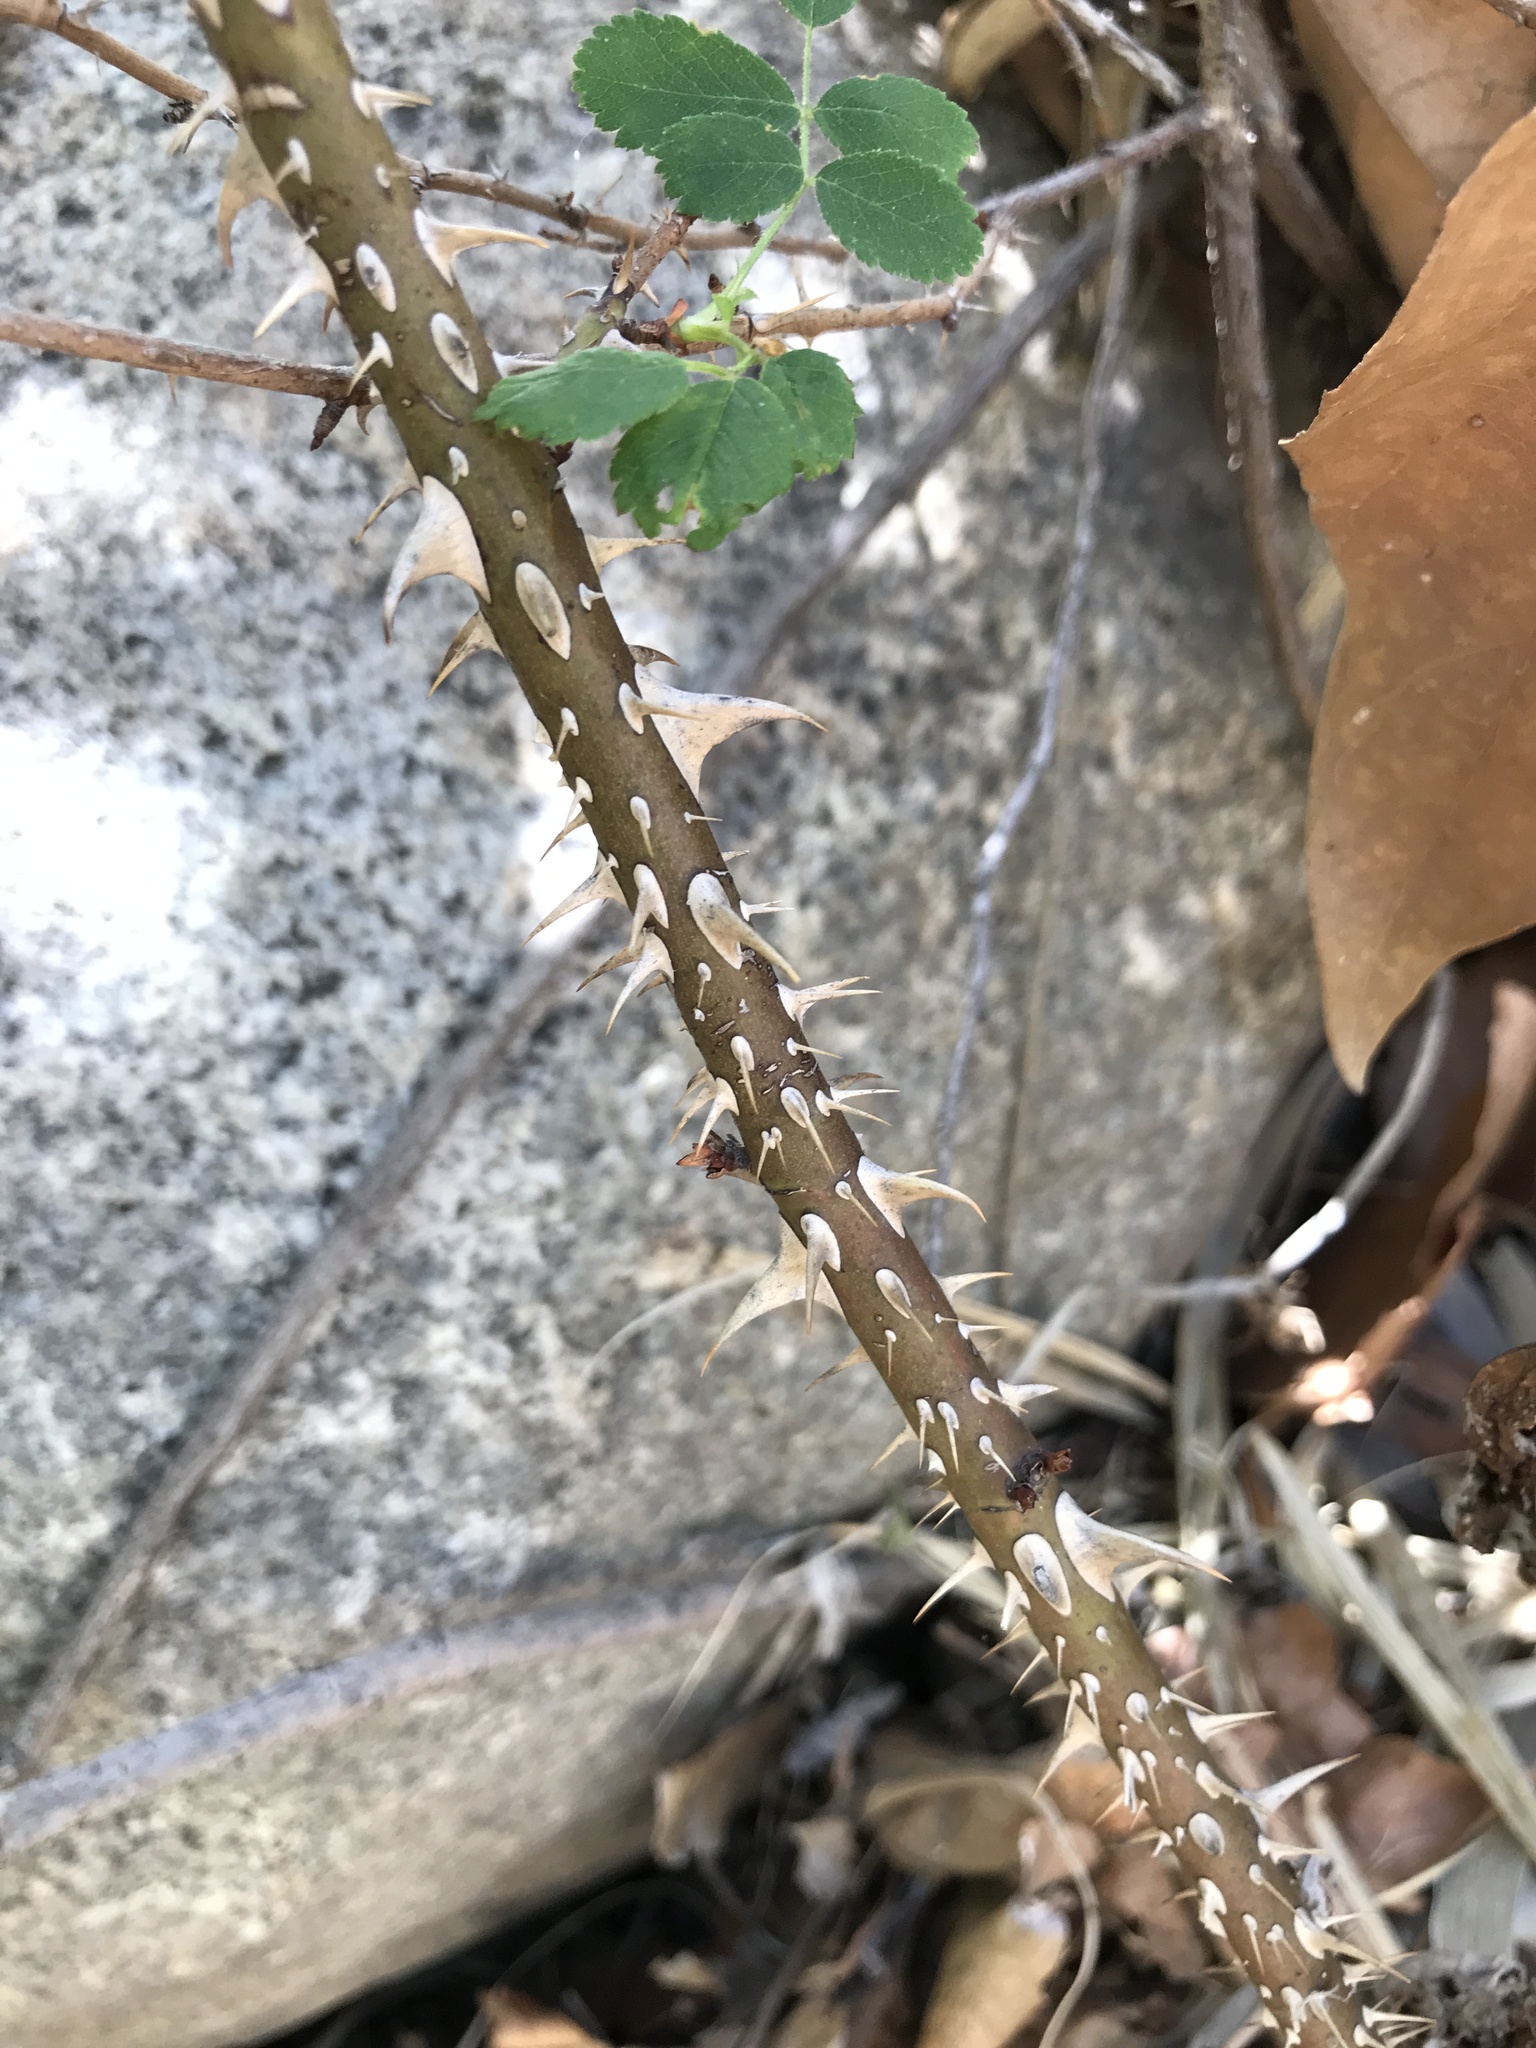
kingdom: Plantae
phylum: Tracheophyta
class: Magnoliopsida
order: Rosales
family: Rosaceae
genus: Rosa
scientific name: Rosa californica
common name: California rose
